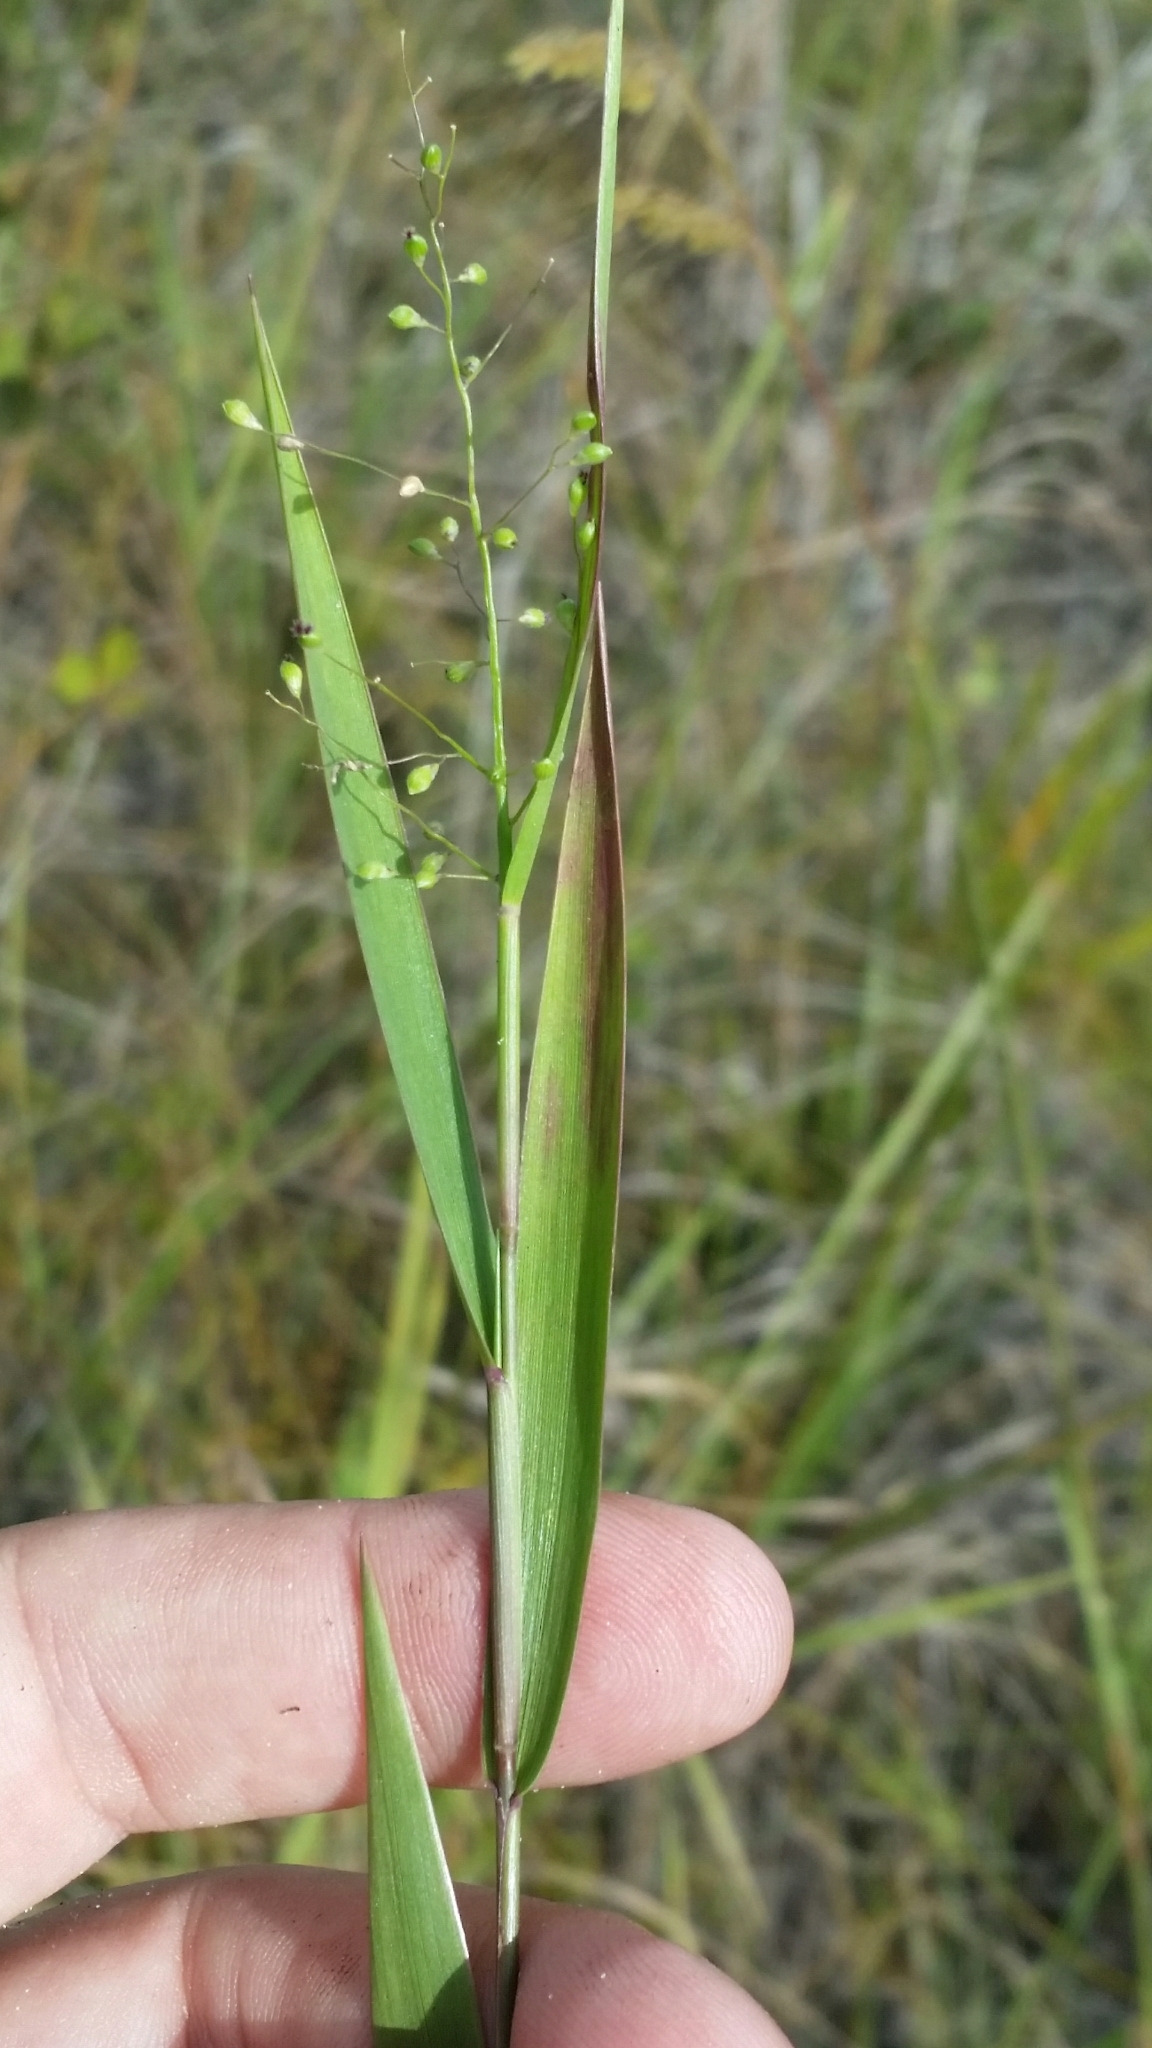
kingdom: Plantae
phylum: Tracheophyta
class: Liliopsida
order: Poales
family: Poaceae
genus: Dichanthelium
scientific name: Dichanthelium portoricense
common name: American panicgrass
